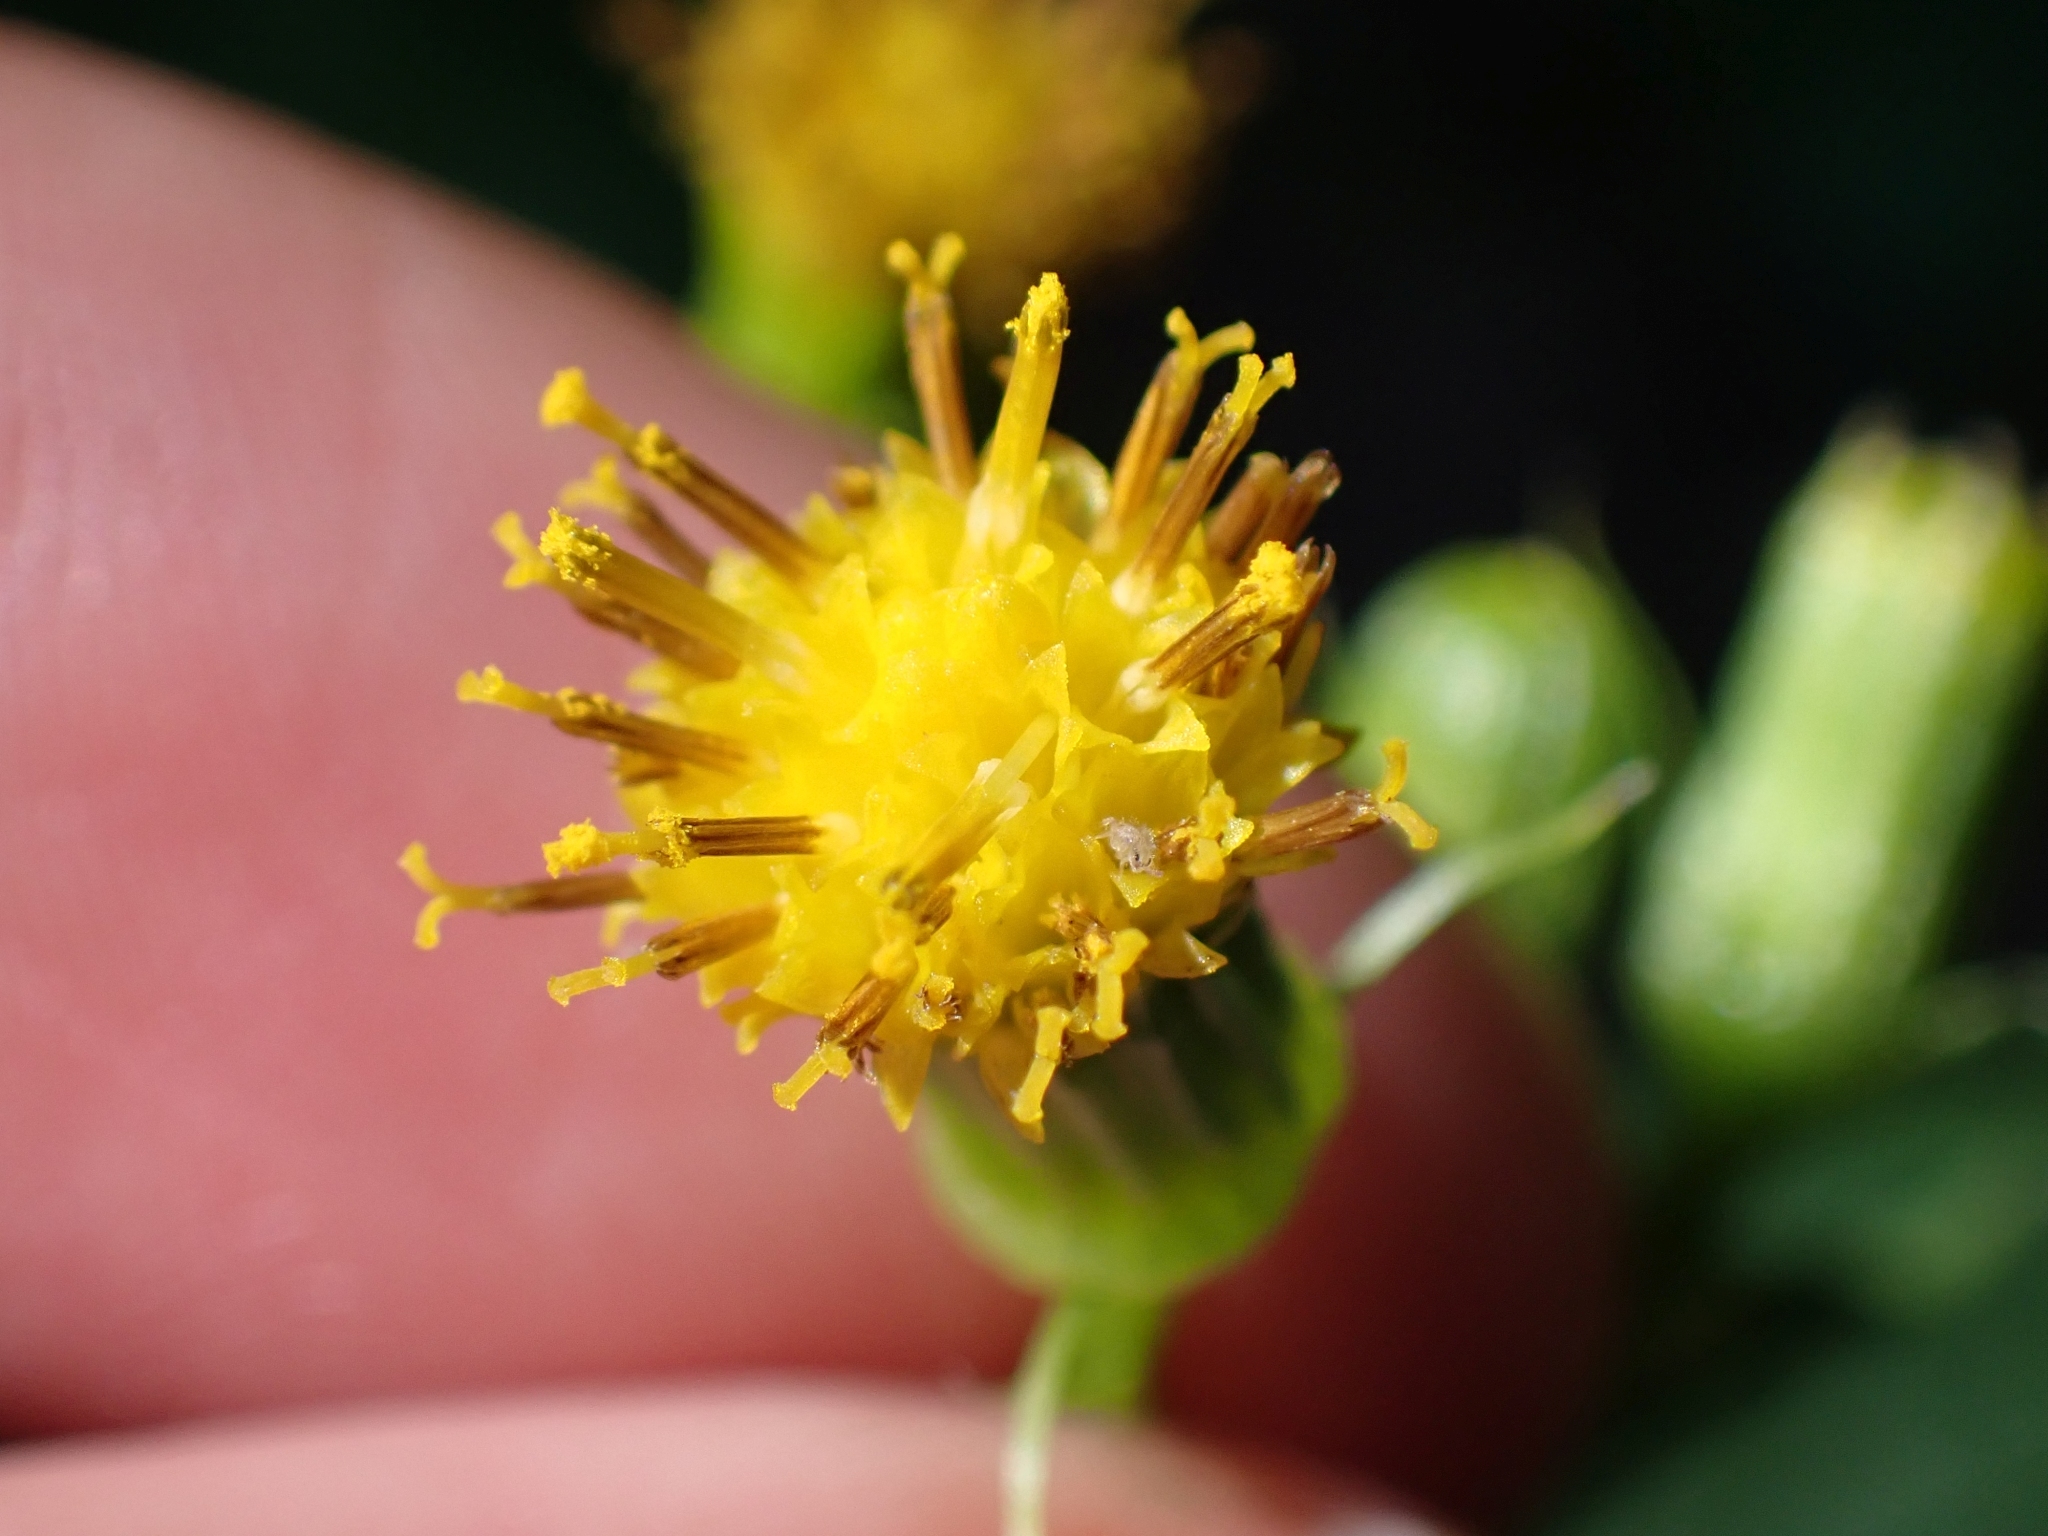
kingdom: Plantae
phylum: Tracheophyta
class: Magnoliopsida
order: Asterales
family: Asteraceae
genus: Senecio
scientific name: Senecio triangularis
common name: Arrowleaf butterweed
